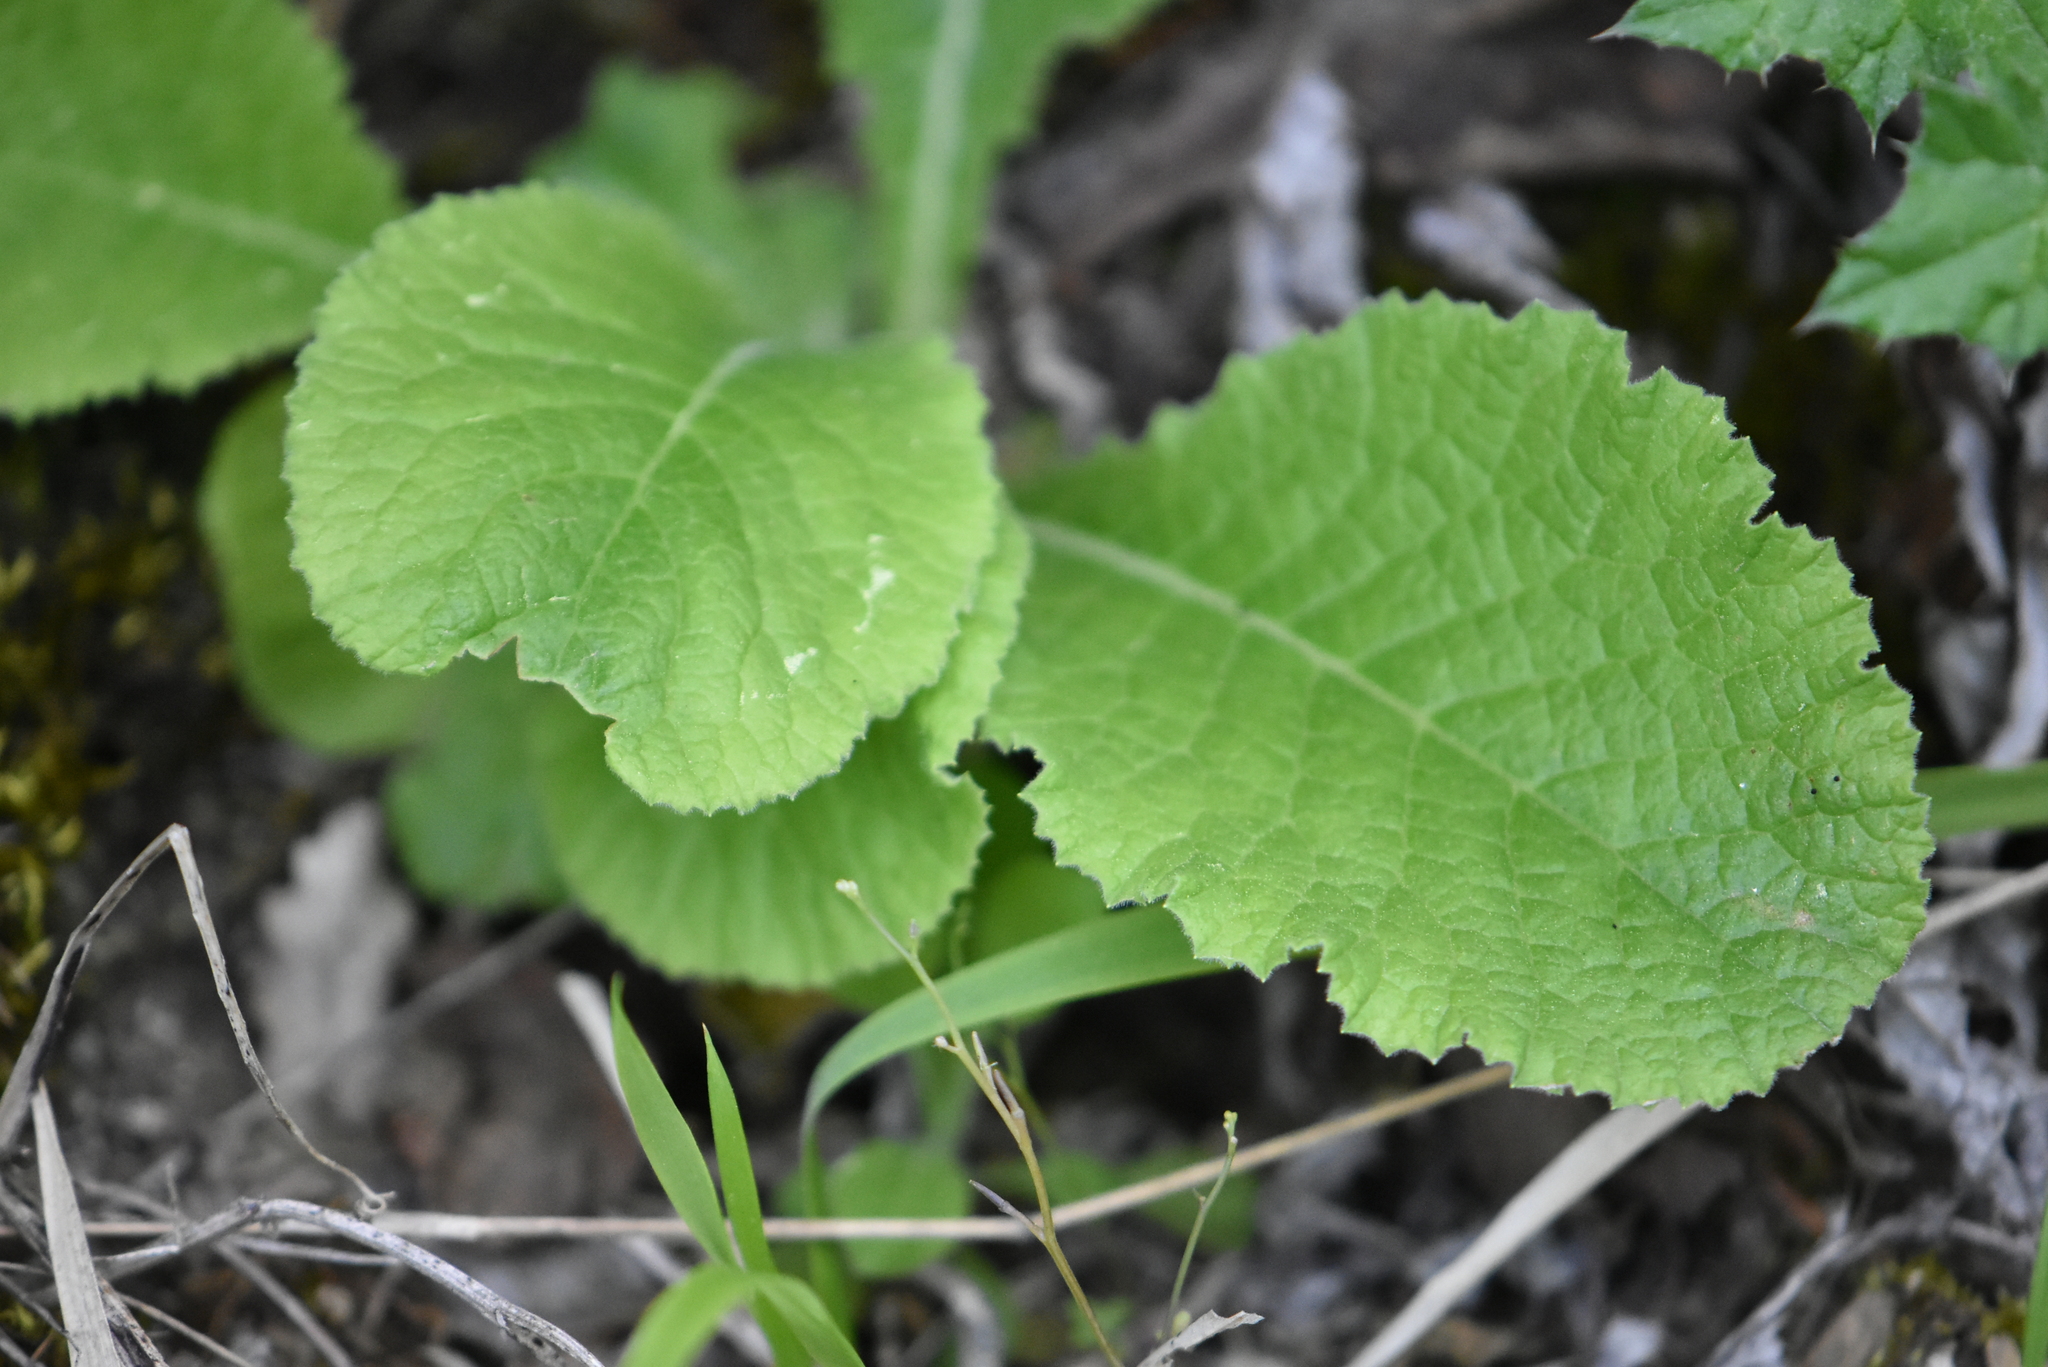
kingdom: Plantae
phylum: Tracheophyta
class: Magnoliopsida
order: Ericales
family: Primulaceae
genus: Primula
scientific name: Primula vulgaris
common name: Primrose
